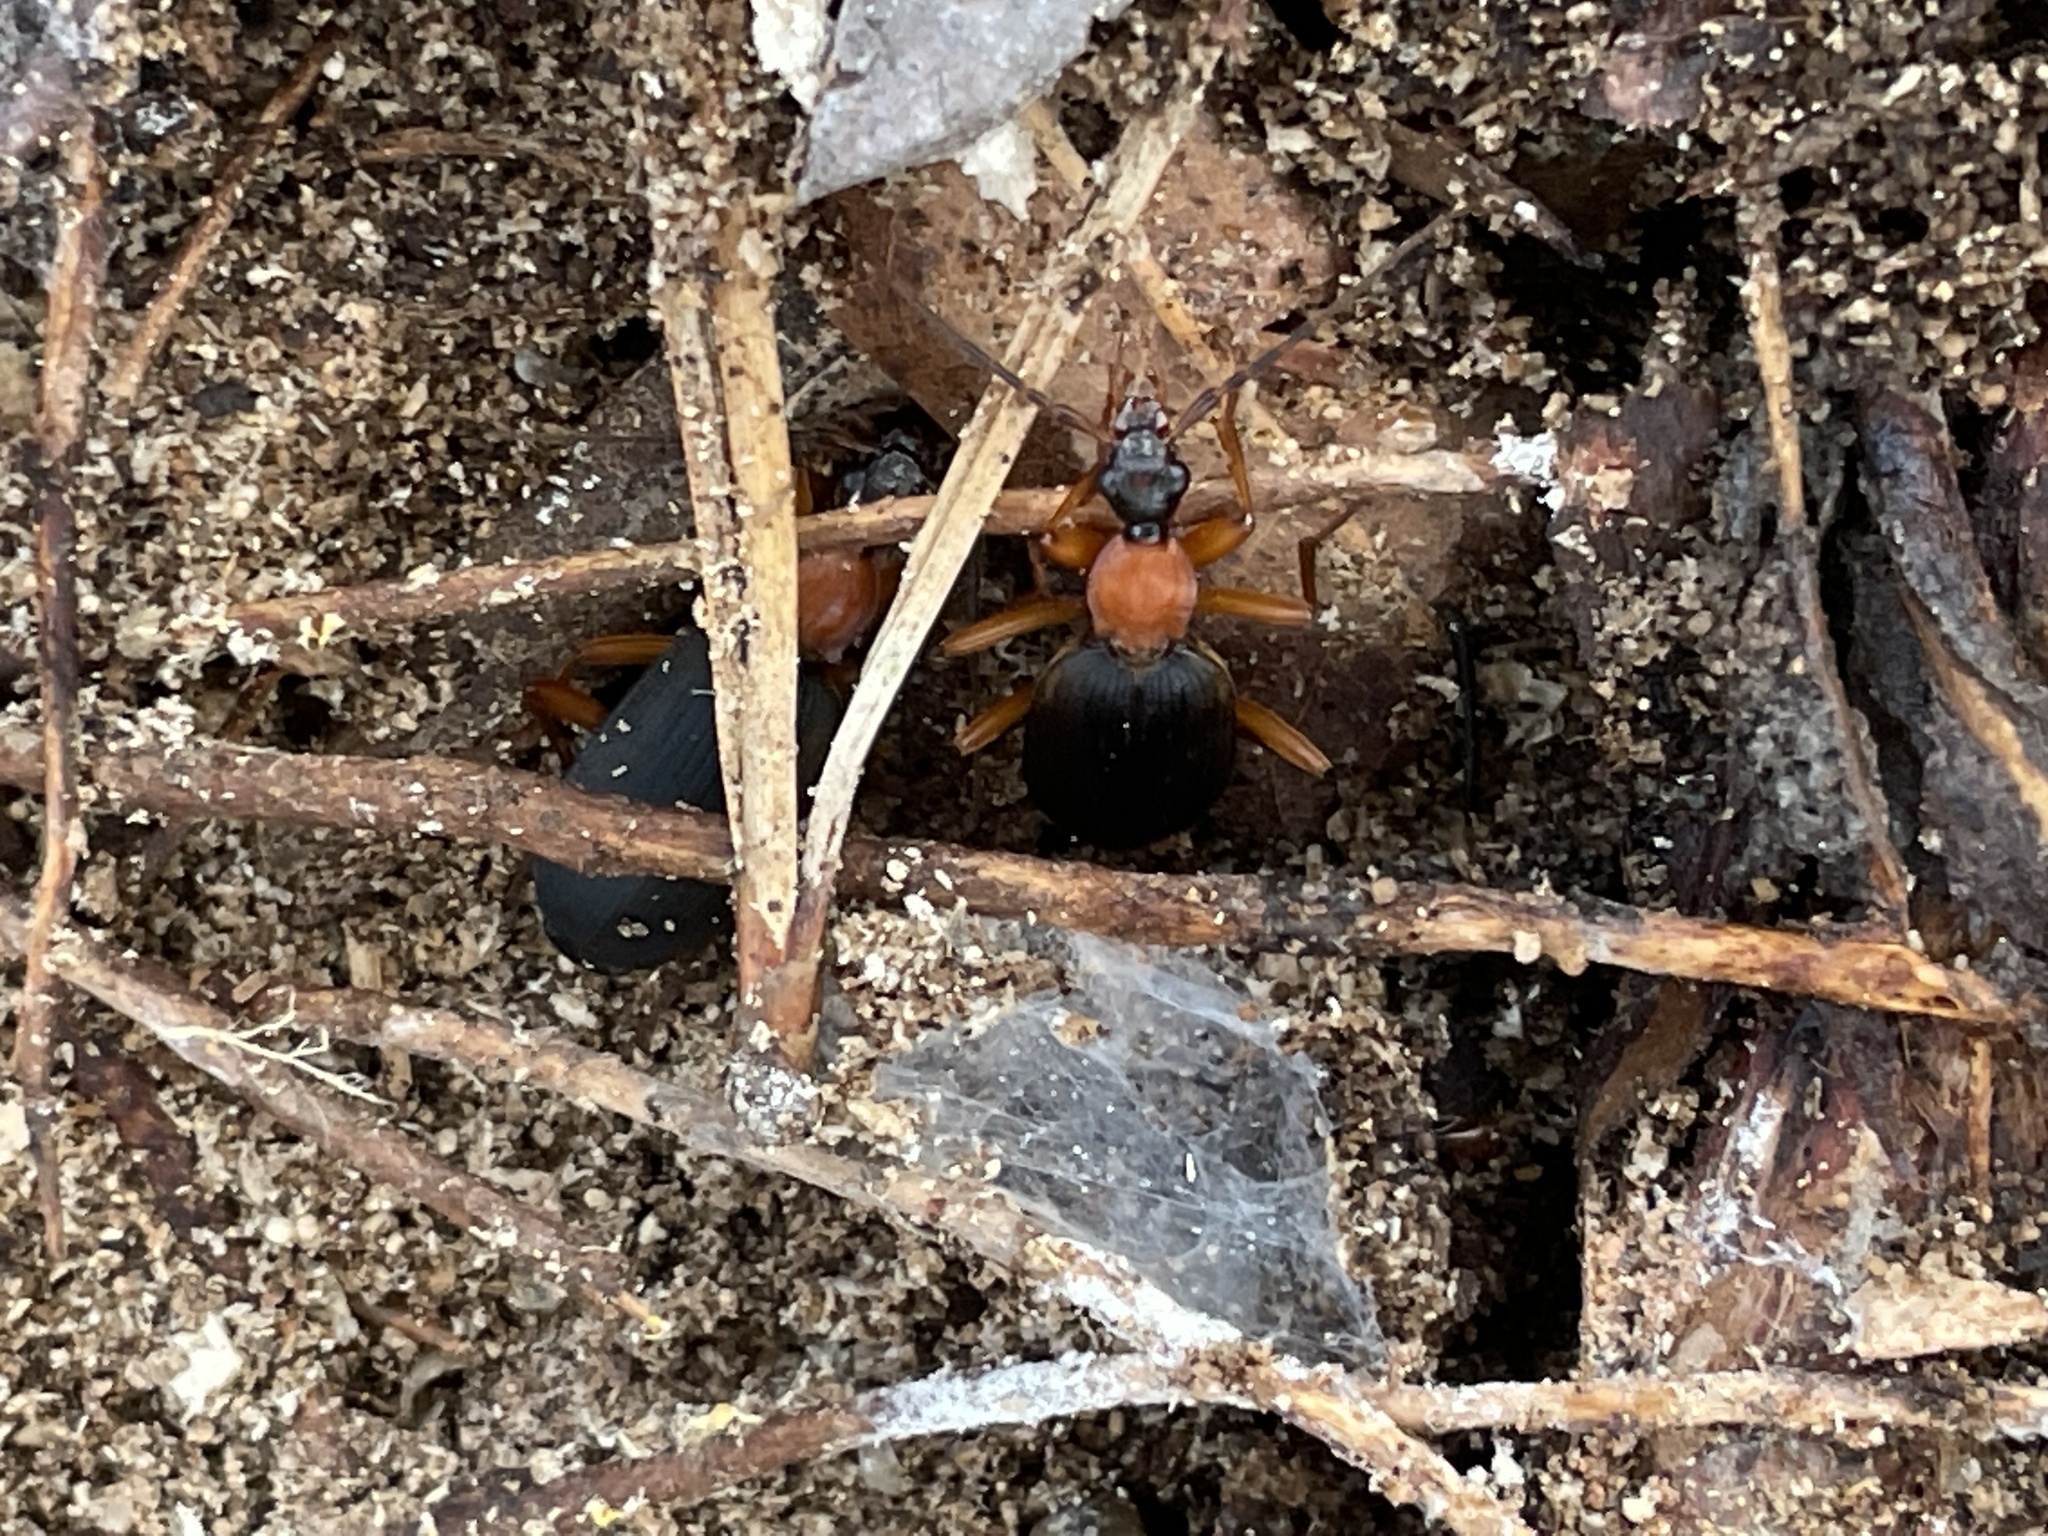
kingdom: Animalia
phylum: Arthropoda
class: Insecta
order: Coleoptera
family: Carabidae
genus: Galerita
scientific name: Galerita bicolor
